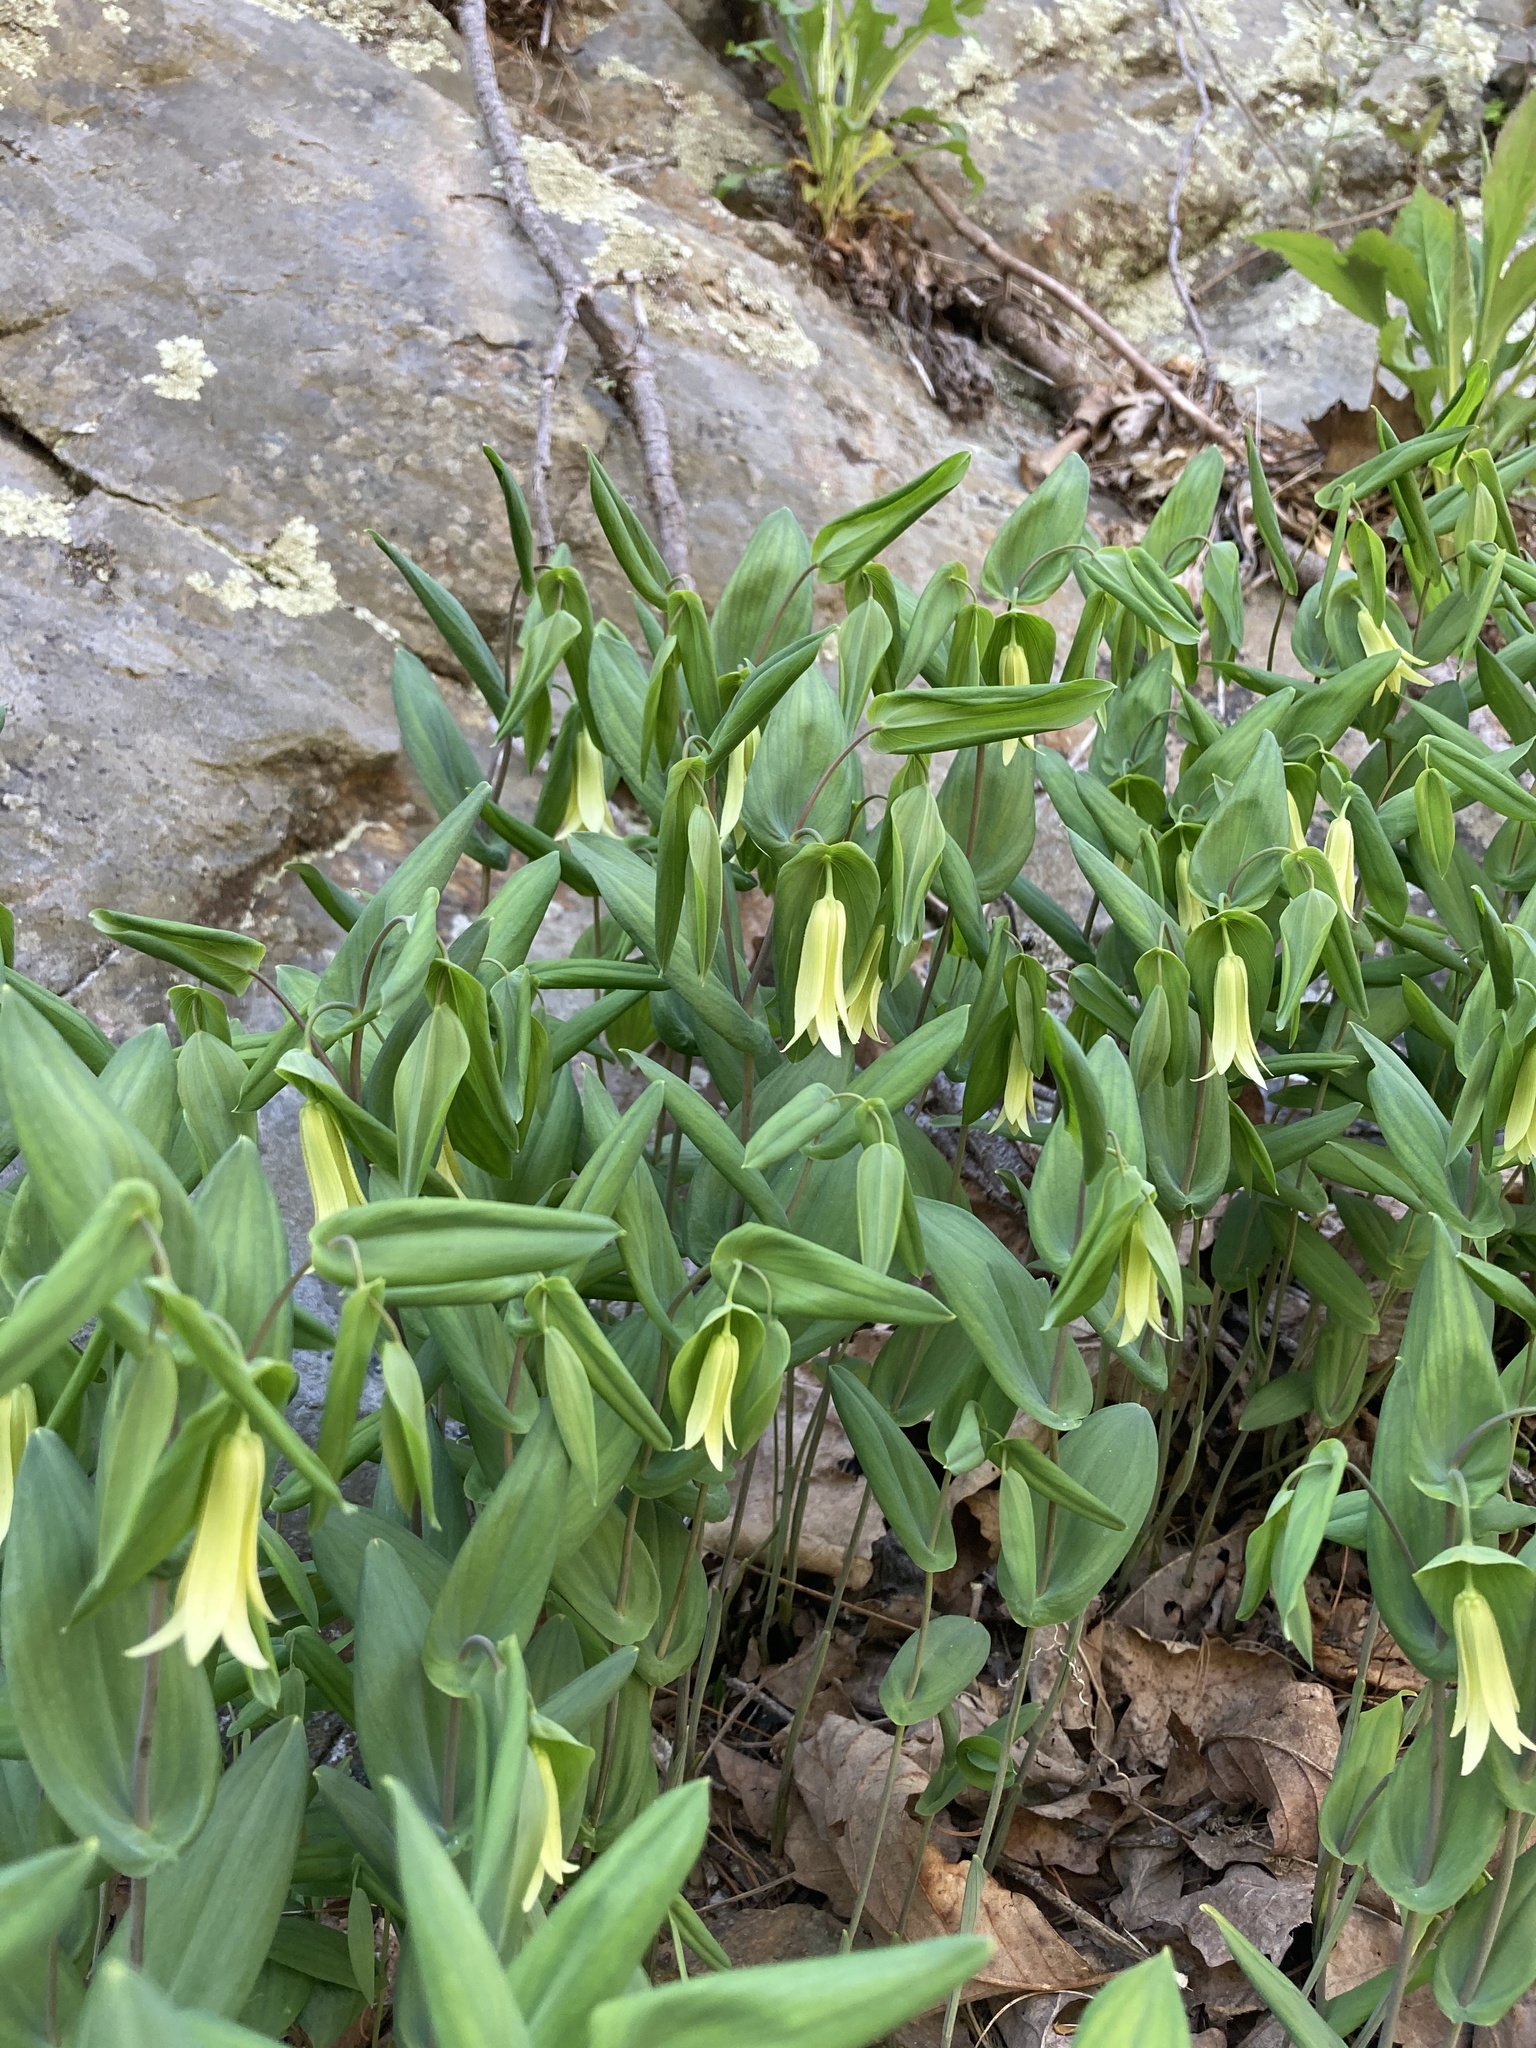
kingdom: Plantae
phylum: Tracheophyta
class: Liliopsida
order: Liliales
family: Colchicaceae
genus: Uvularia
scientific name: Uvularia perfoliata
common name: Perfoliate bellwort
